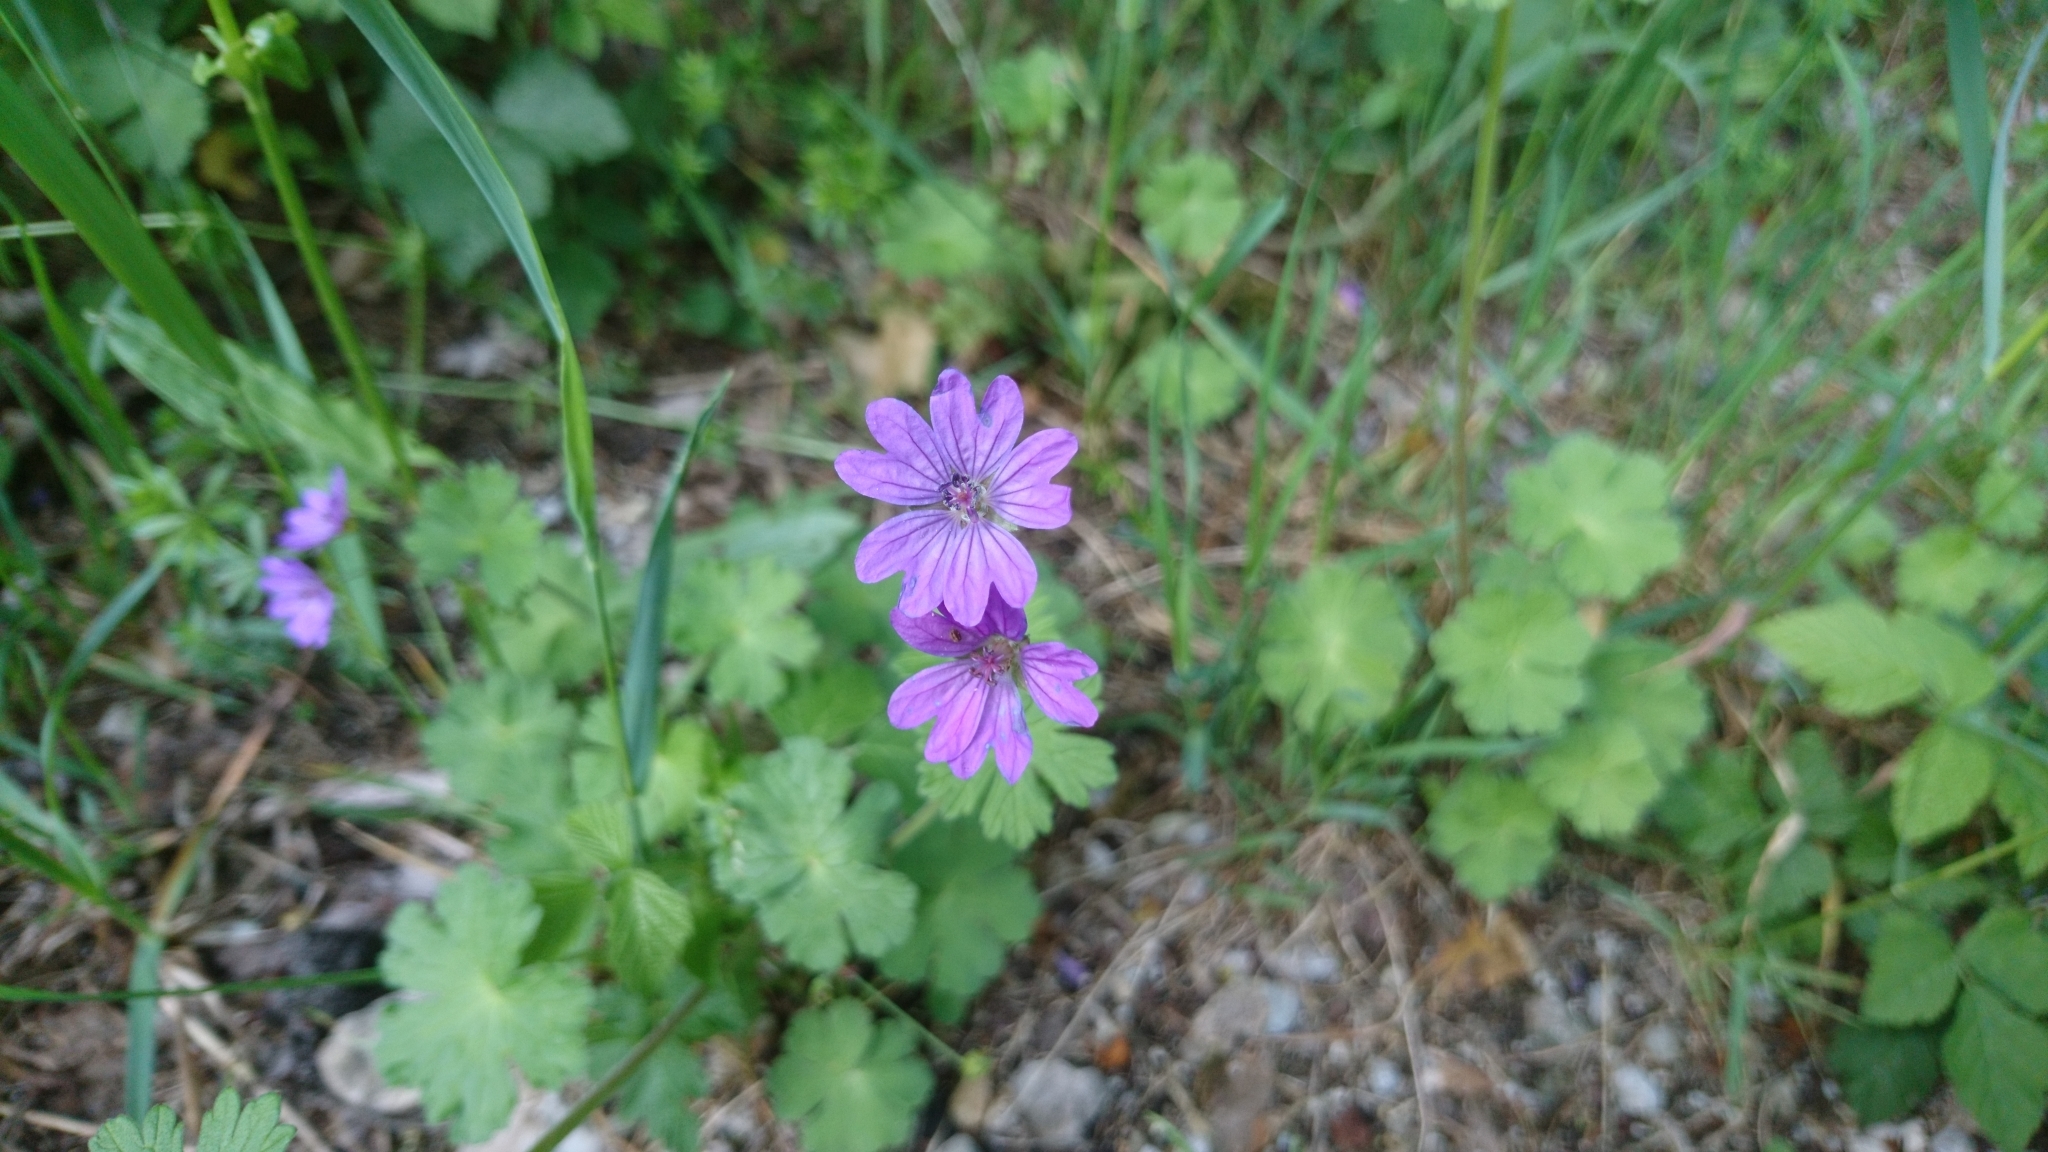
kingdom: Plantae
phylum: Tracheophyta
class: Magnoliopsida
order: Geraniales
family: Geraniaceae
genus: Geranium
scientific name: Geranium pyrenaicum
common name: Hedgerow crane's-bill
